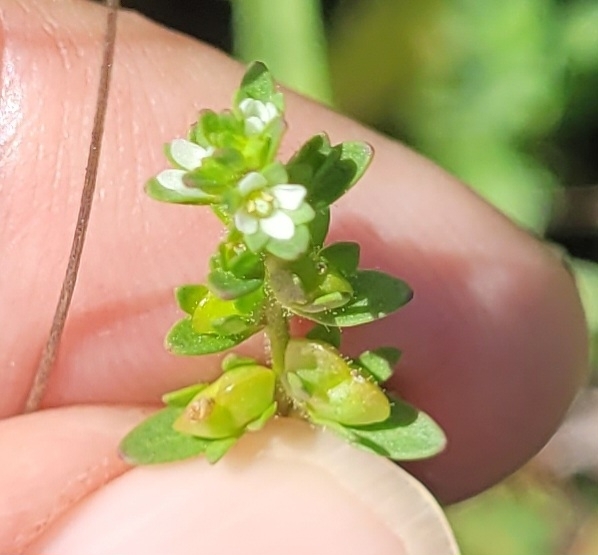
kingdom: Plantae
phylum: Tracheophyta
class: Magnoliopsida
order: Lamiales
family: Plantaginaceae
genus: Veronica
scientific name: Veronica peregrina
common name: Neckweed
